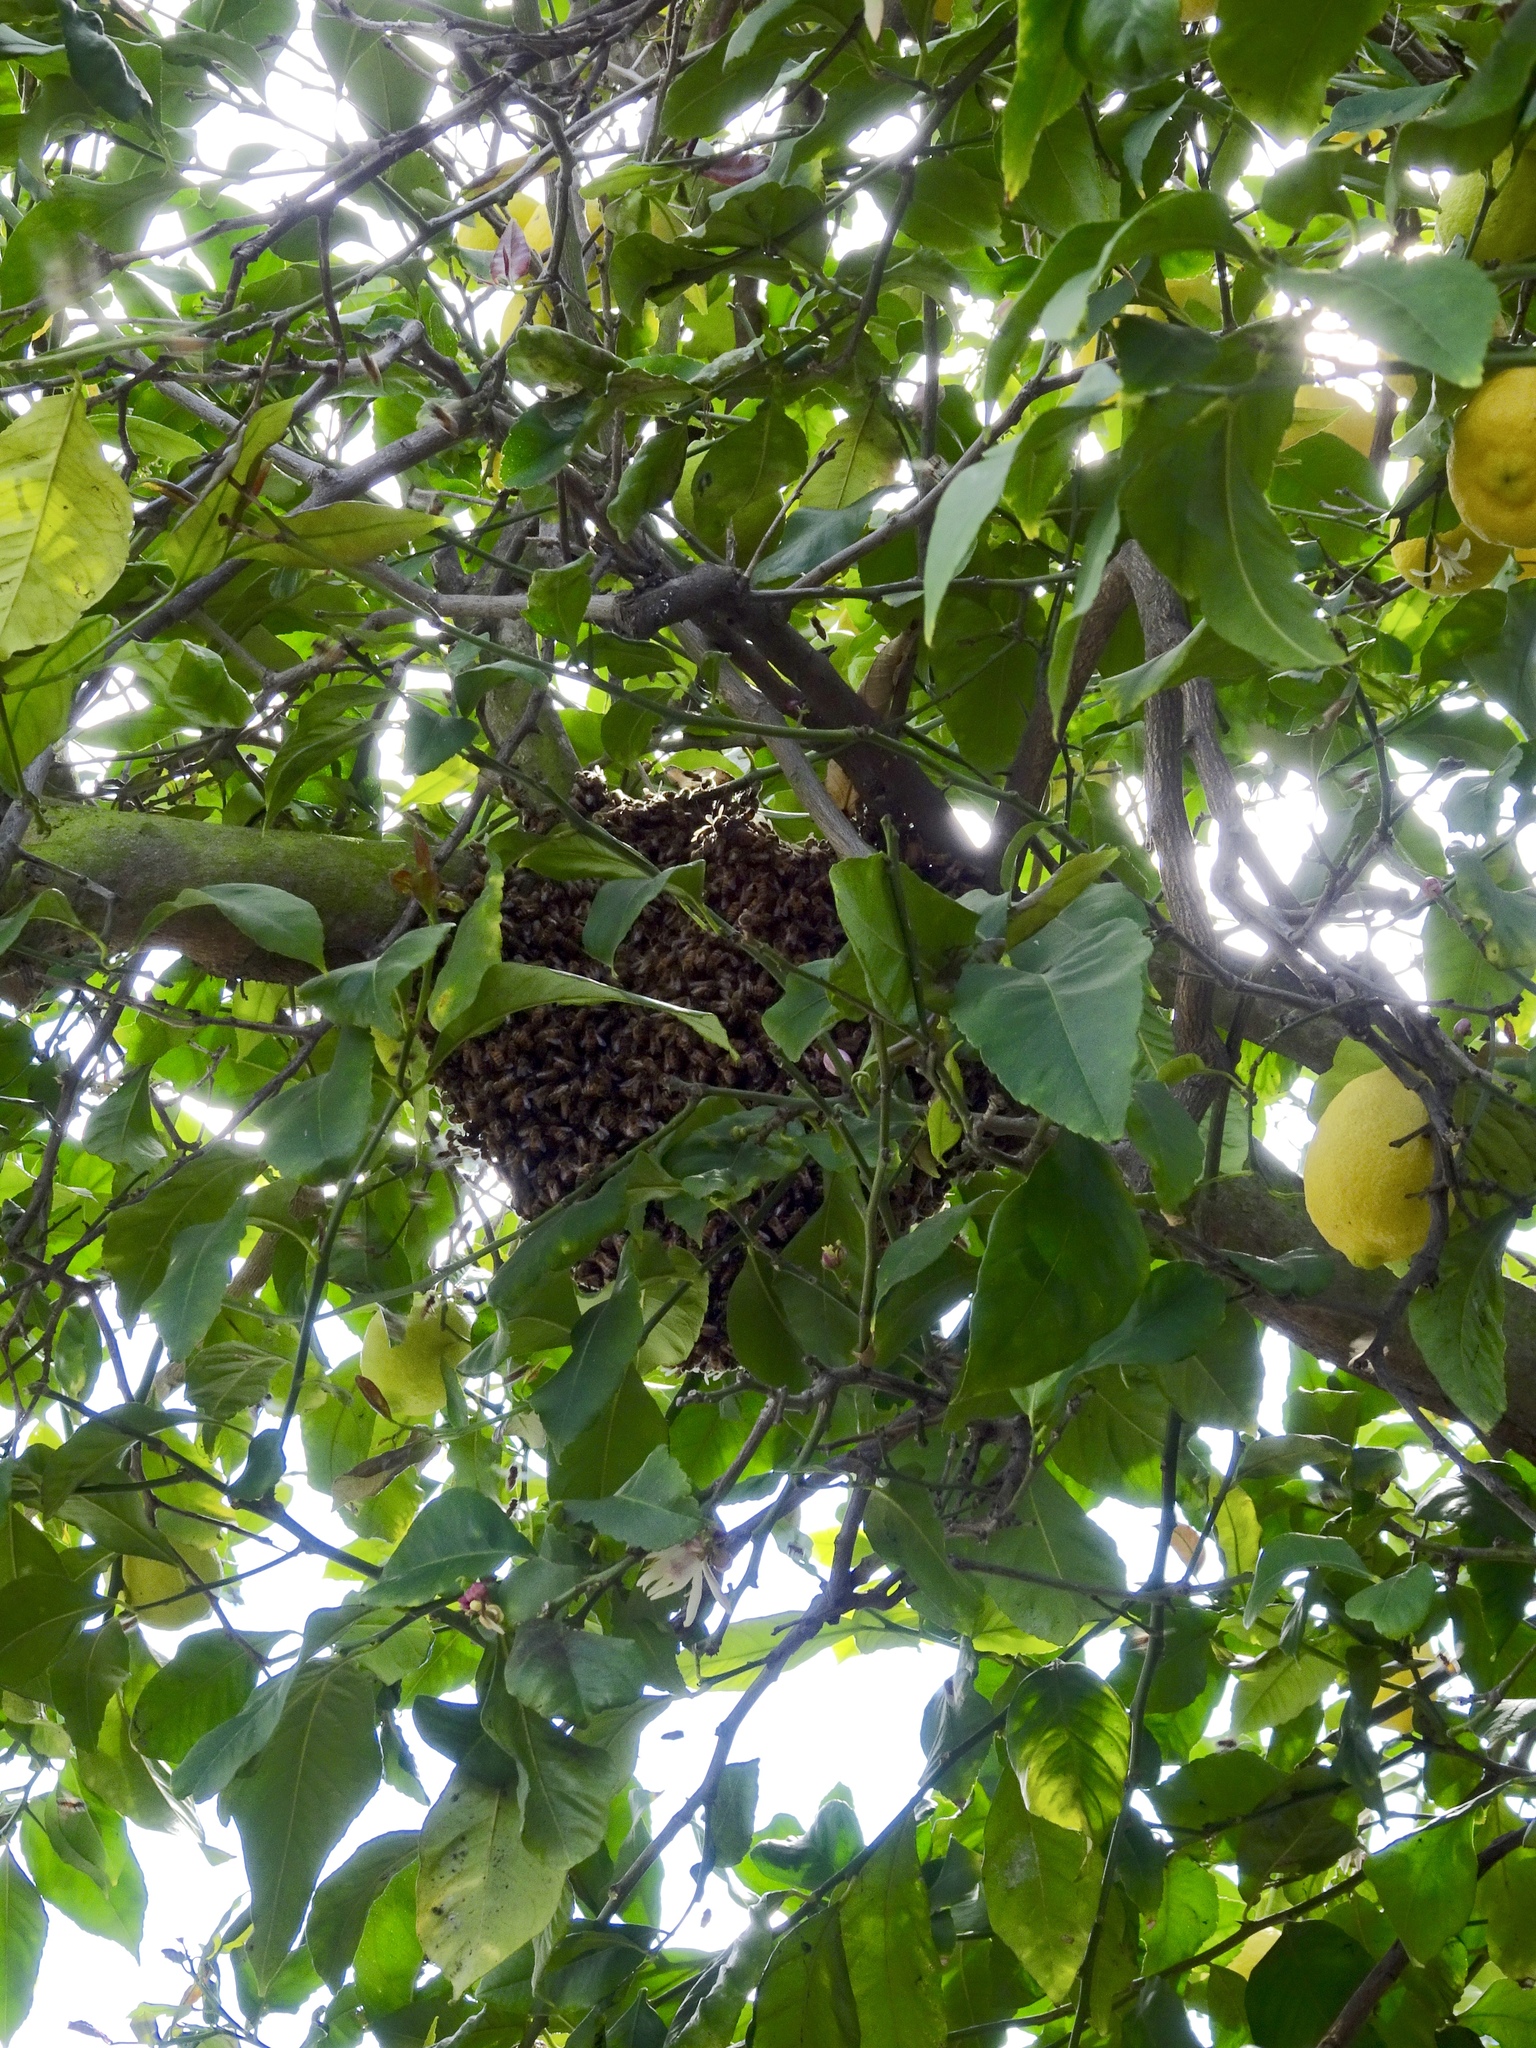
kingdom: Animalia
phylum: Arthropoda
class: Insecta
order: Hymenoptera
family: Apidae
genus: Apis
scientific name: Apis mellifera
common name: Honey bee
